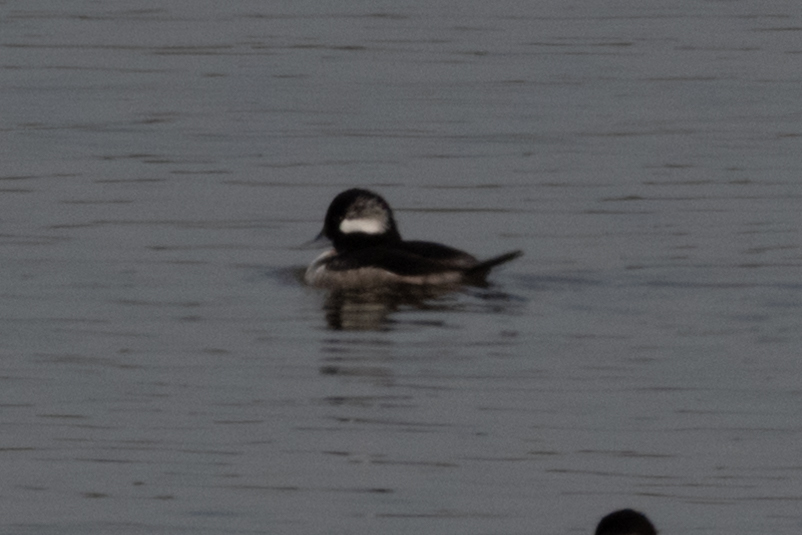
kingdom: Animalia
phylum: Chordata
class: Aves
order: Anseriformes
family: Anatidae
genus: Bucephala
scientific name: Bucephala albeola
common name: Bufflehead
